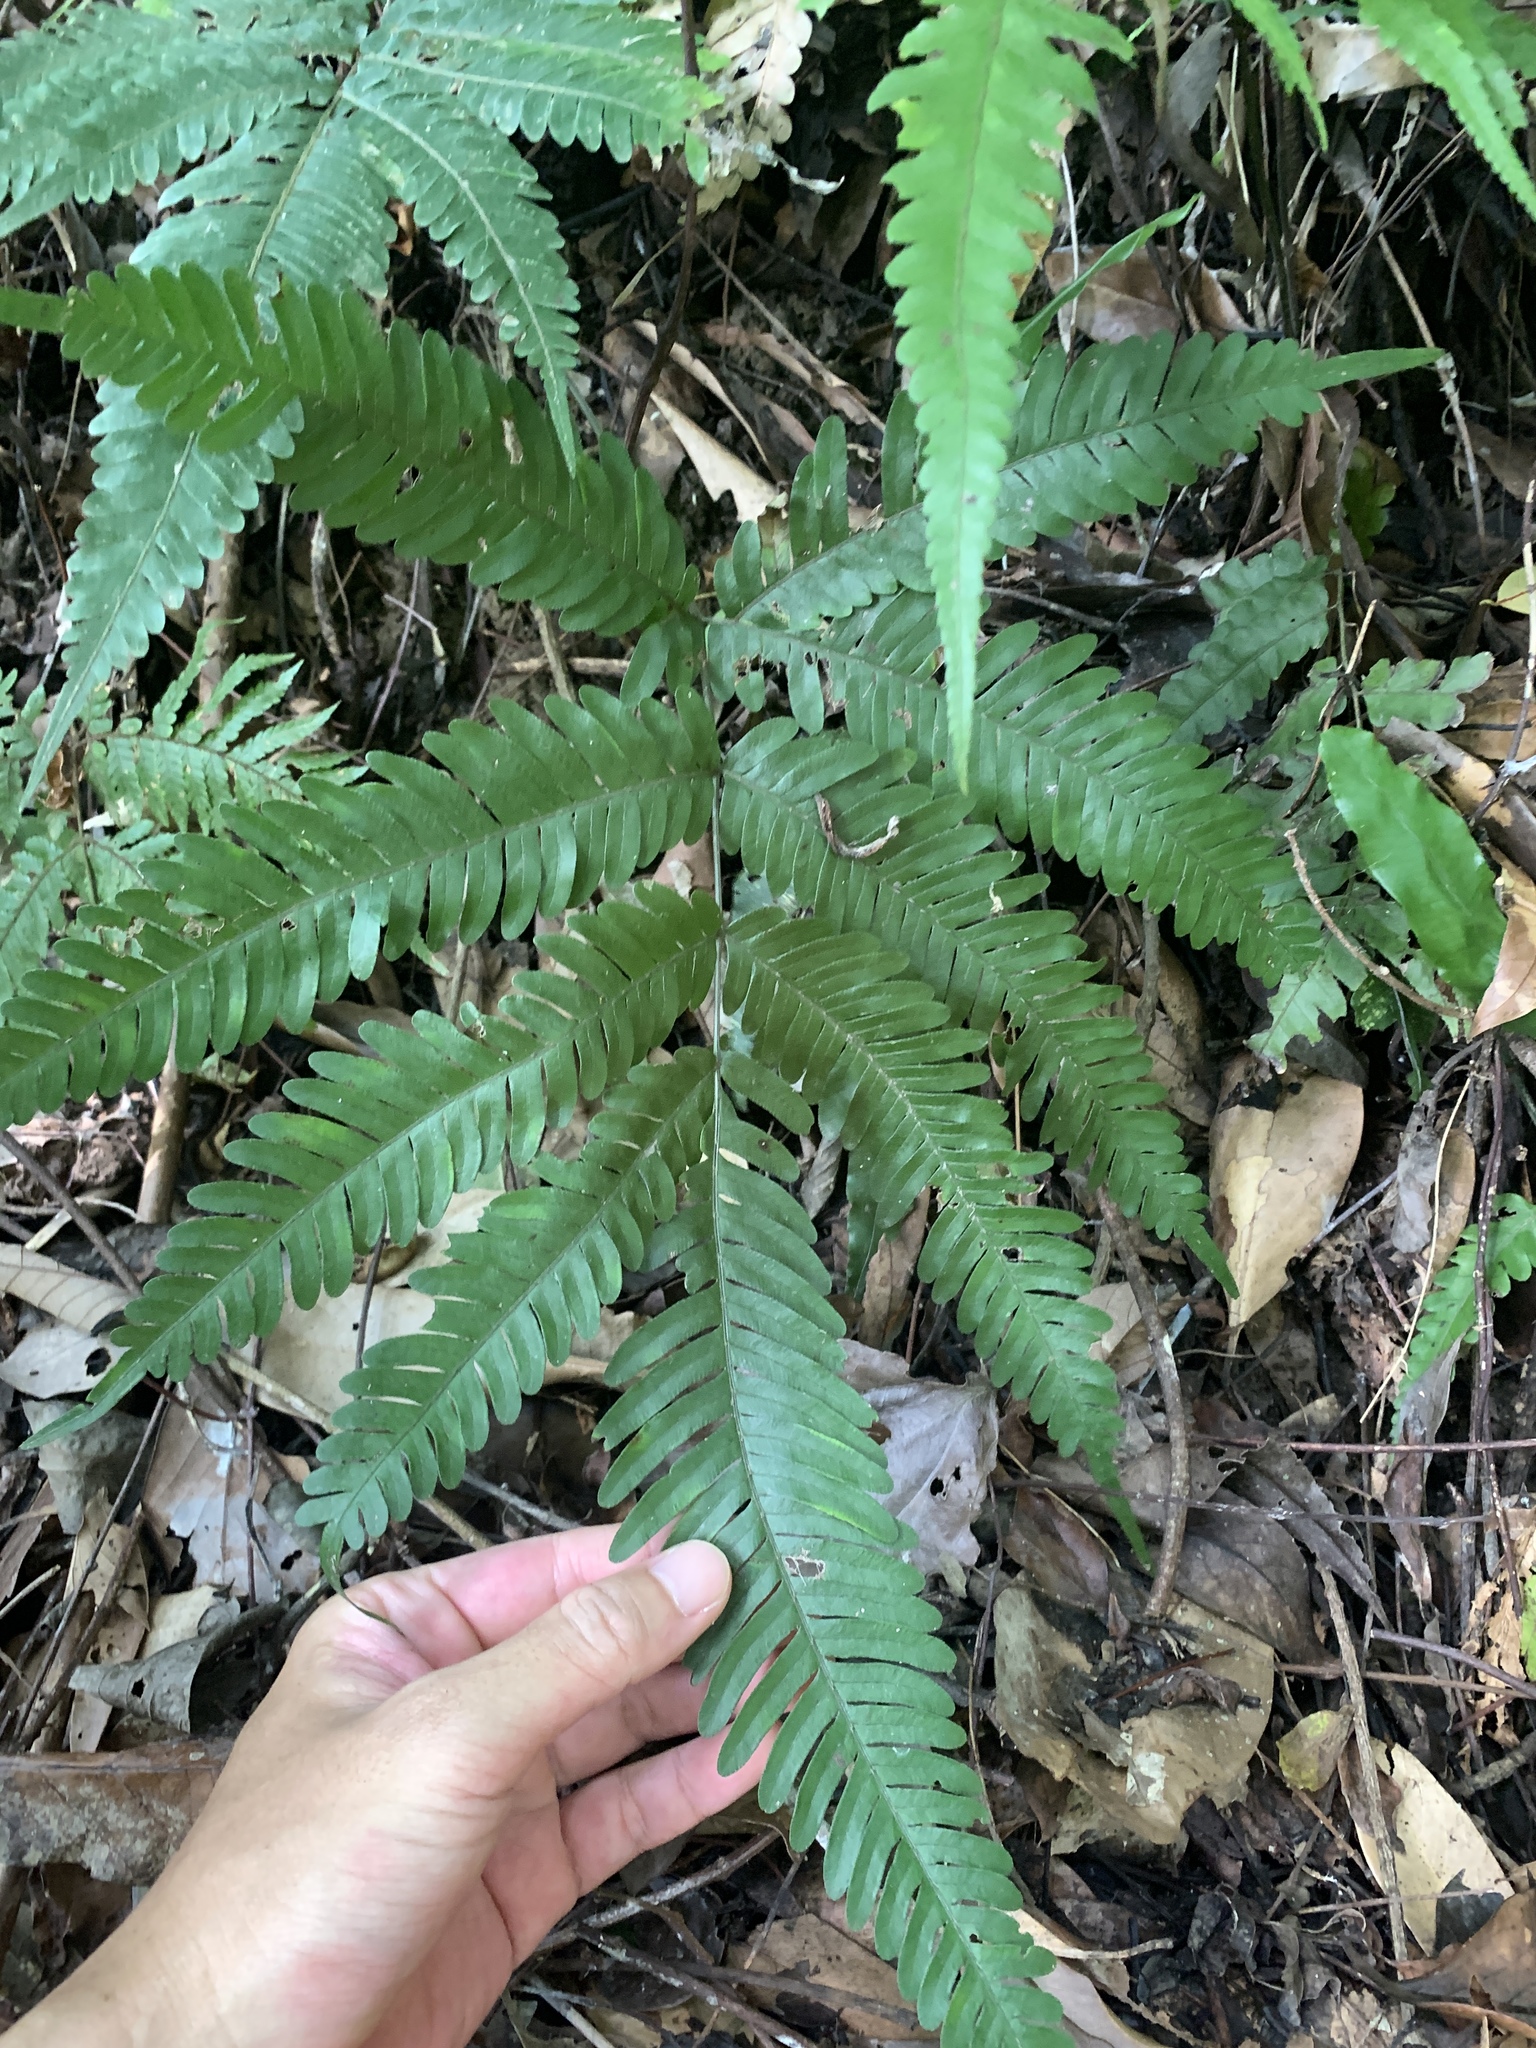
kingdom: Plantae
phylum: Tracheophyta
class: Polypodiopsida
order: Polypodiales
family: Pteridaceae
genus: Pteris
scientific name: Pteris fauriei
